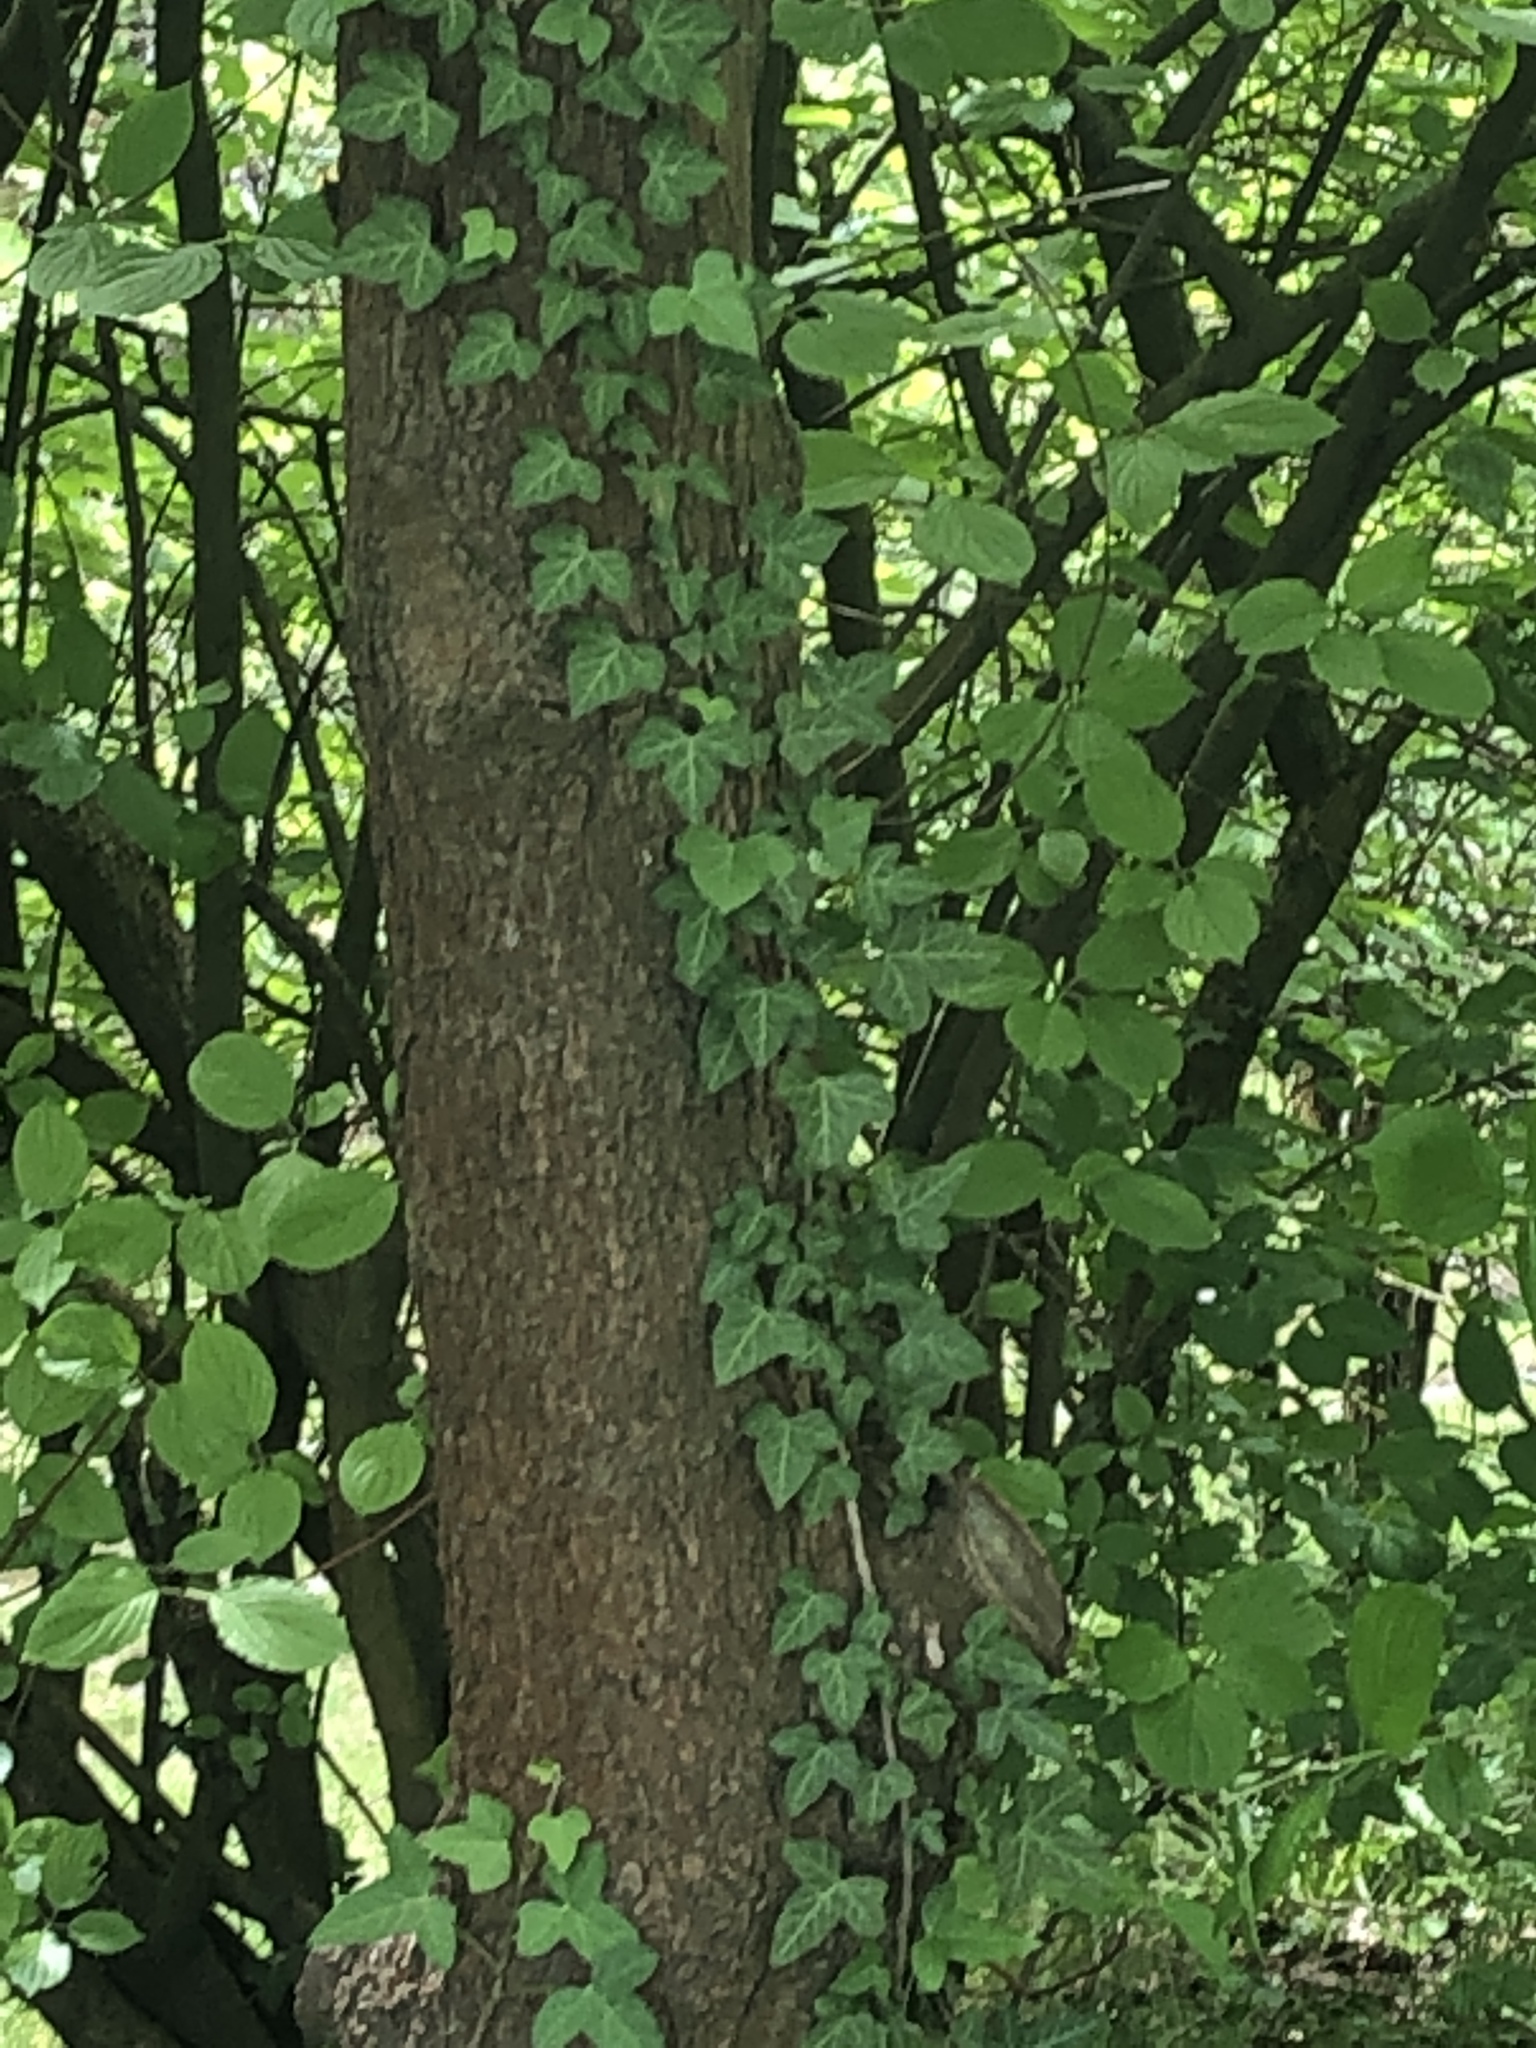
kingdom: Plantae
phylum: Tracheophyta
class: Magnoliopsida
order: Apiales
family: Araliaceae
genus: Hedera
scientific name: Hedera helix
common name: Ivy
